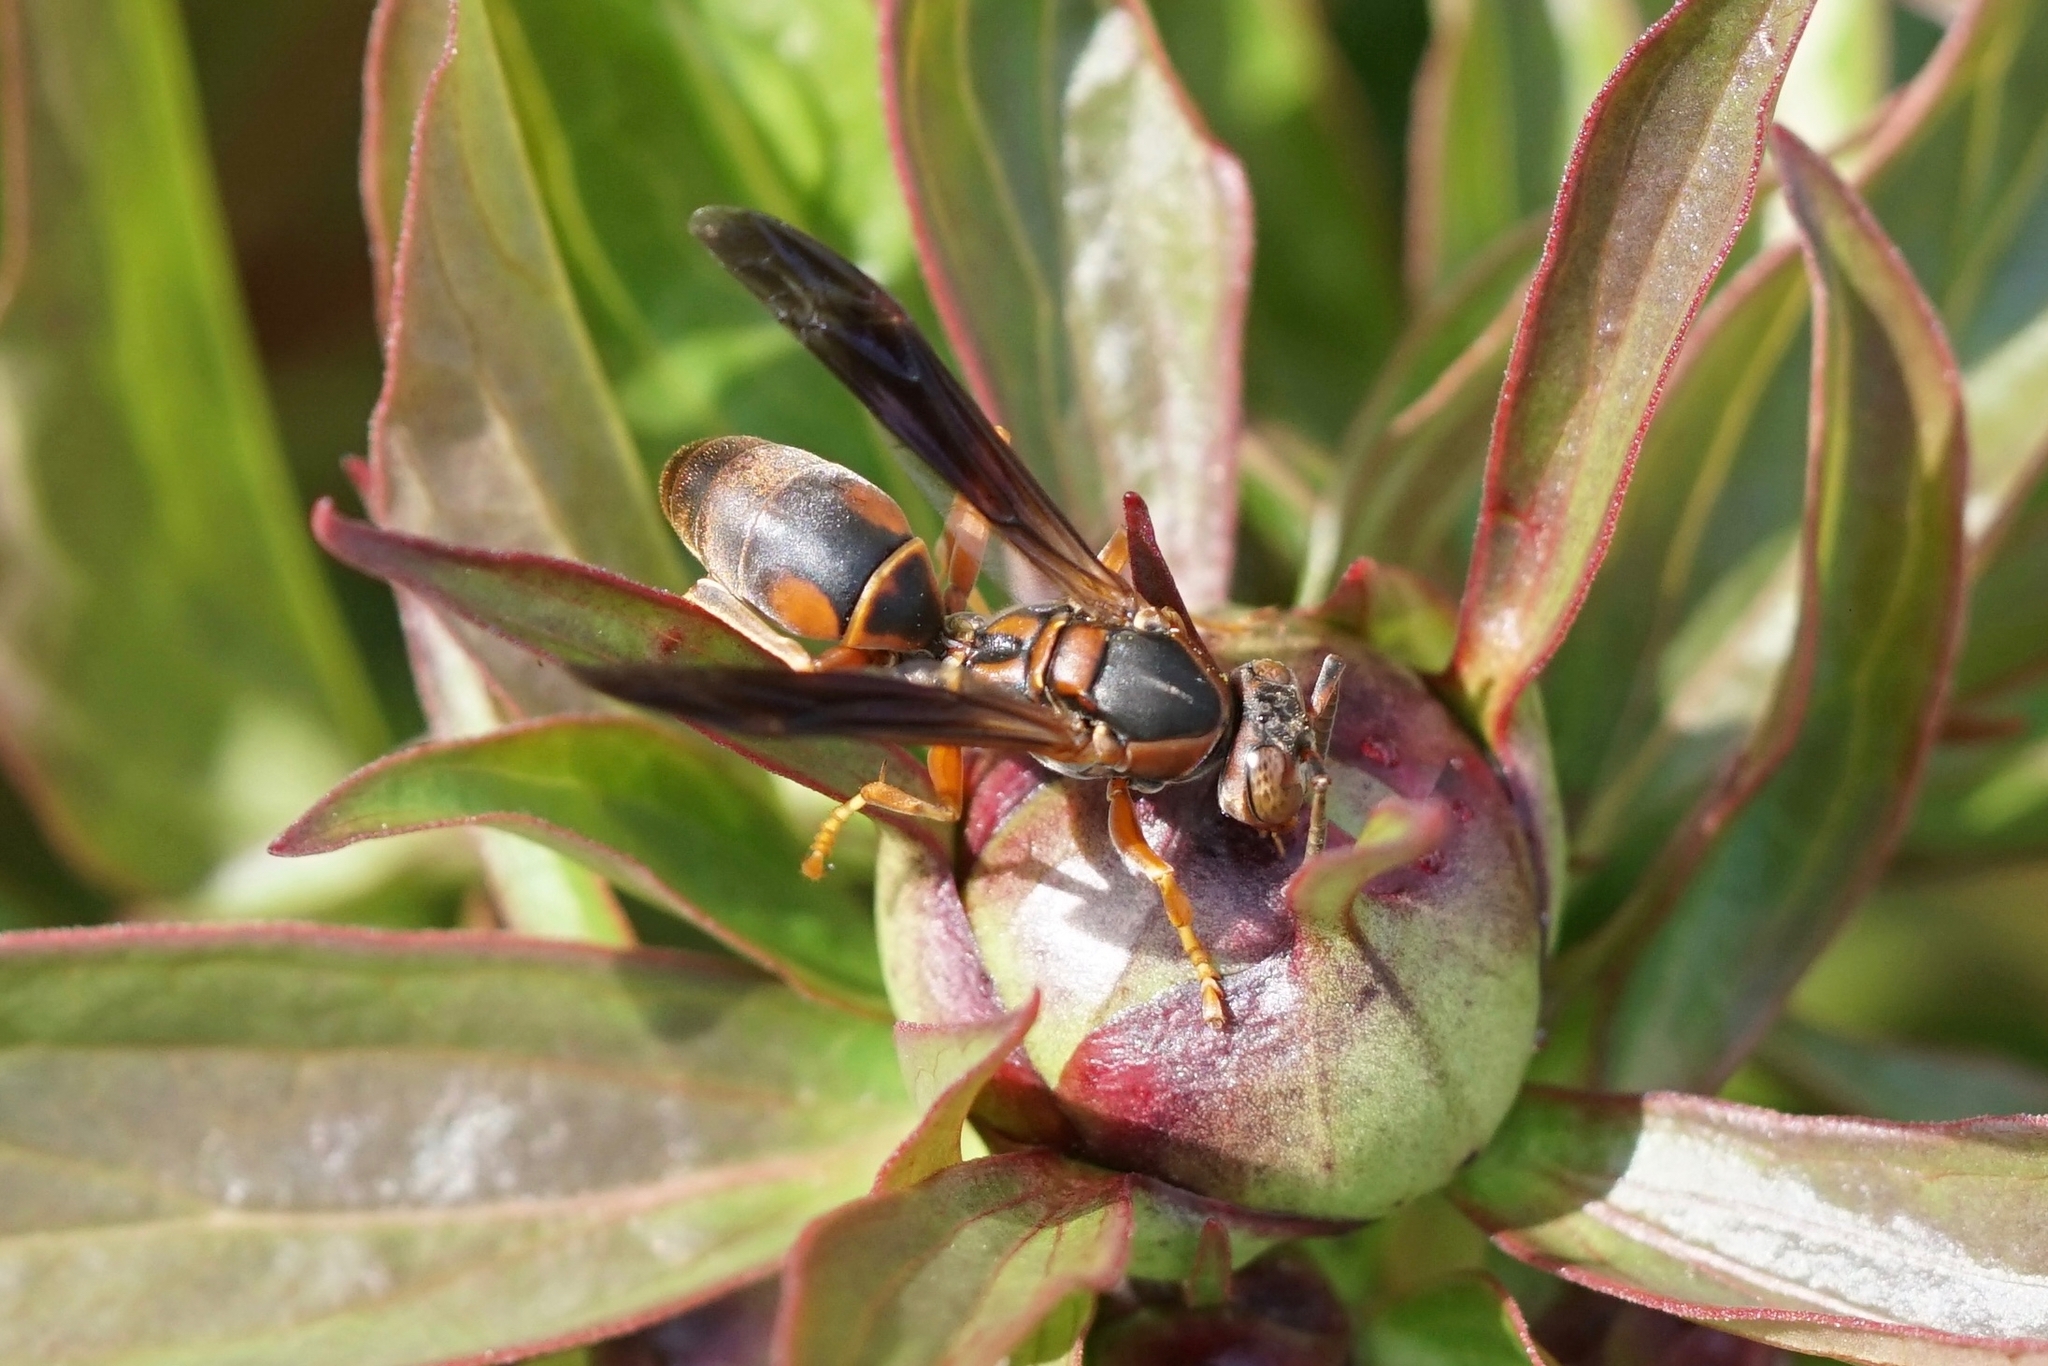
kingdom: Animalia
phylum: Arthropoda
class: Insecta
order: Hymenoptera
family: Eumenidae
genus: Polistes
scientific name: Polistes fuscatus
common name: Dark paper wasp
